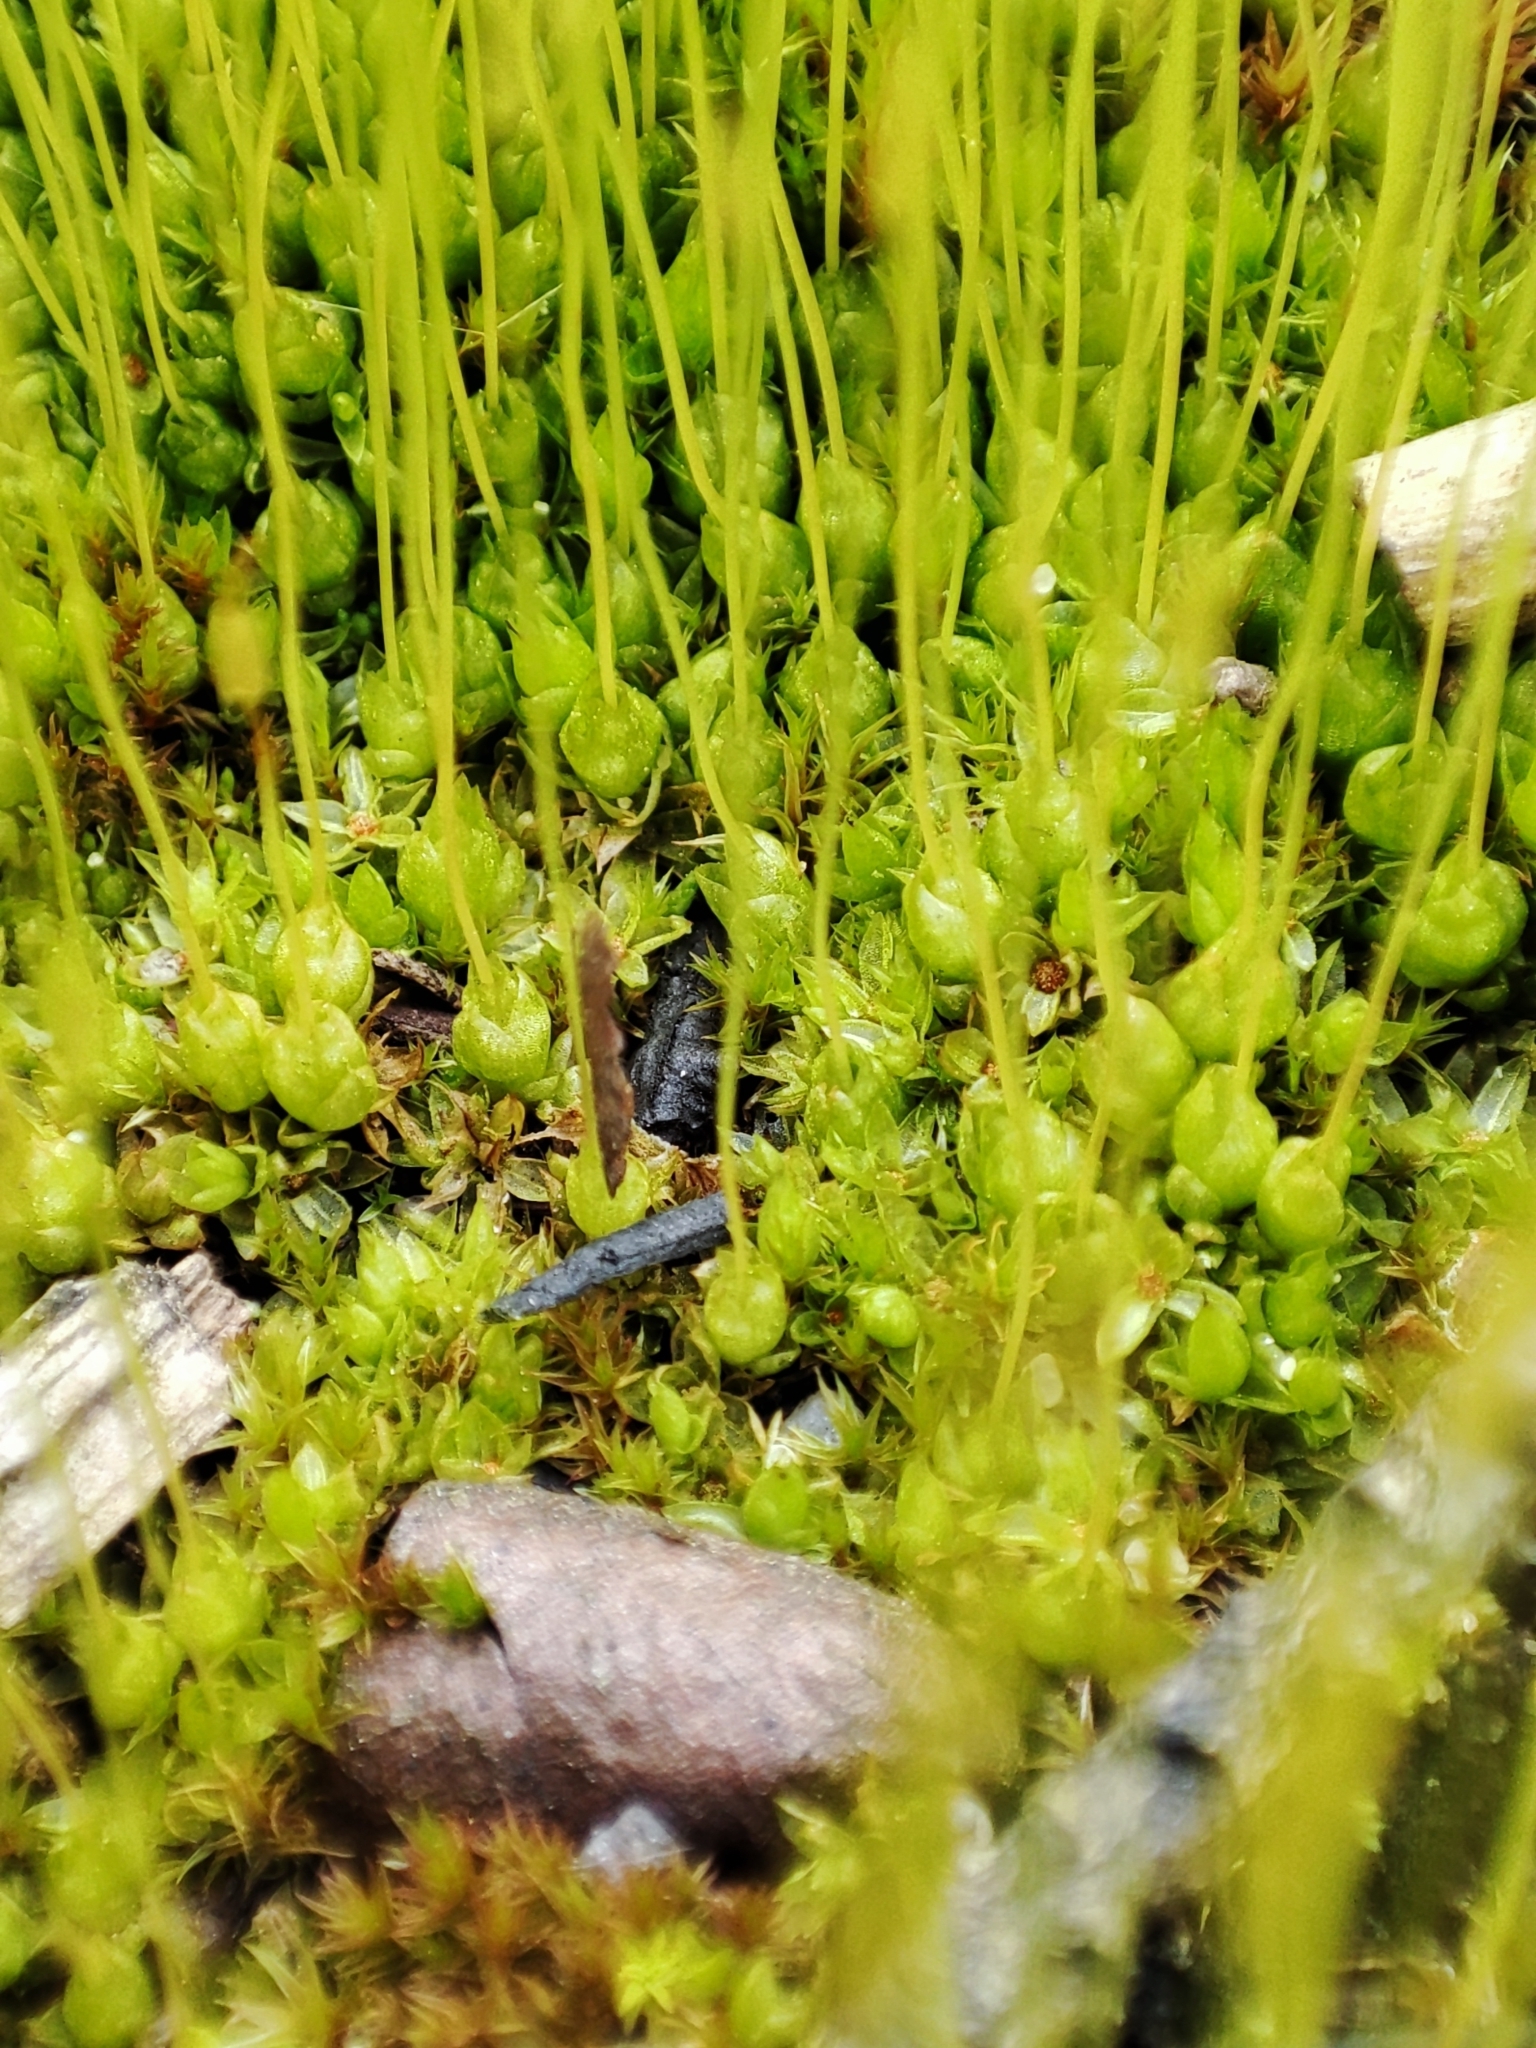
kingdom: Plantae
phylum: Bryophyta
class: Bryopsida
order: Funariales
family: Funariaceae
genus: Funaria
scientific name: Funaria hygrometrica
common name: Common cord moss
